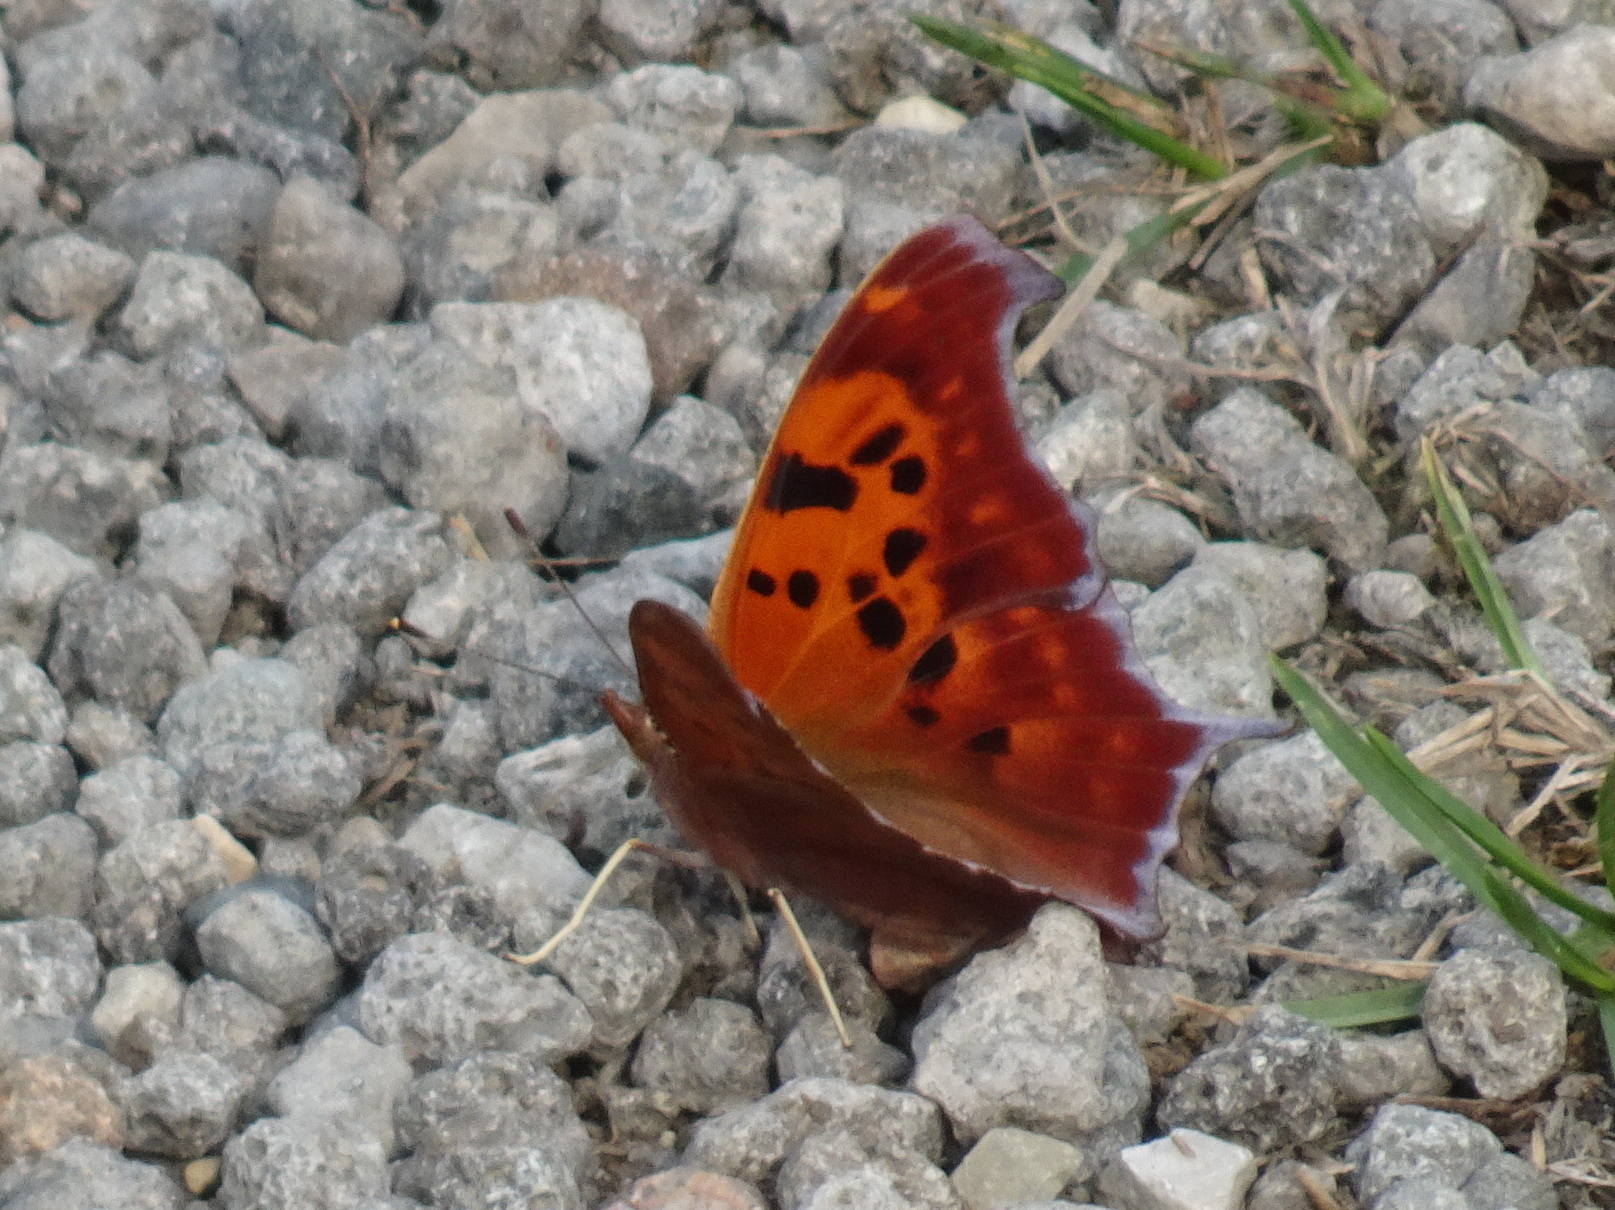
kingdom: Animalia
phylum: Arthropoda
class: Insecta
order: Lepidoptera
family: Nymphalidae
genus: Polygonia
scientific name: Polygonia interrogationis
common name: Question mark
